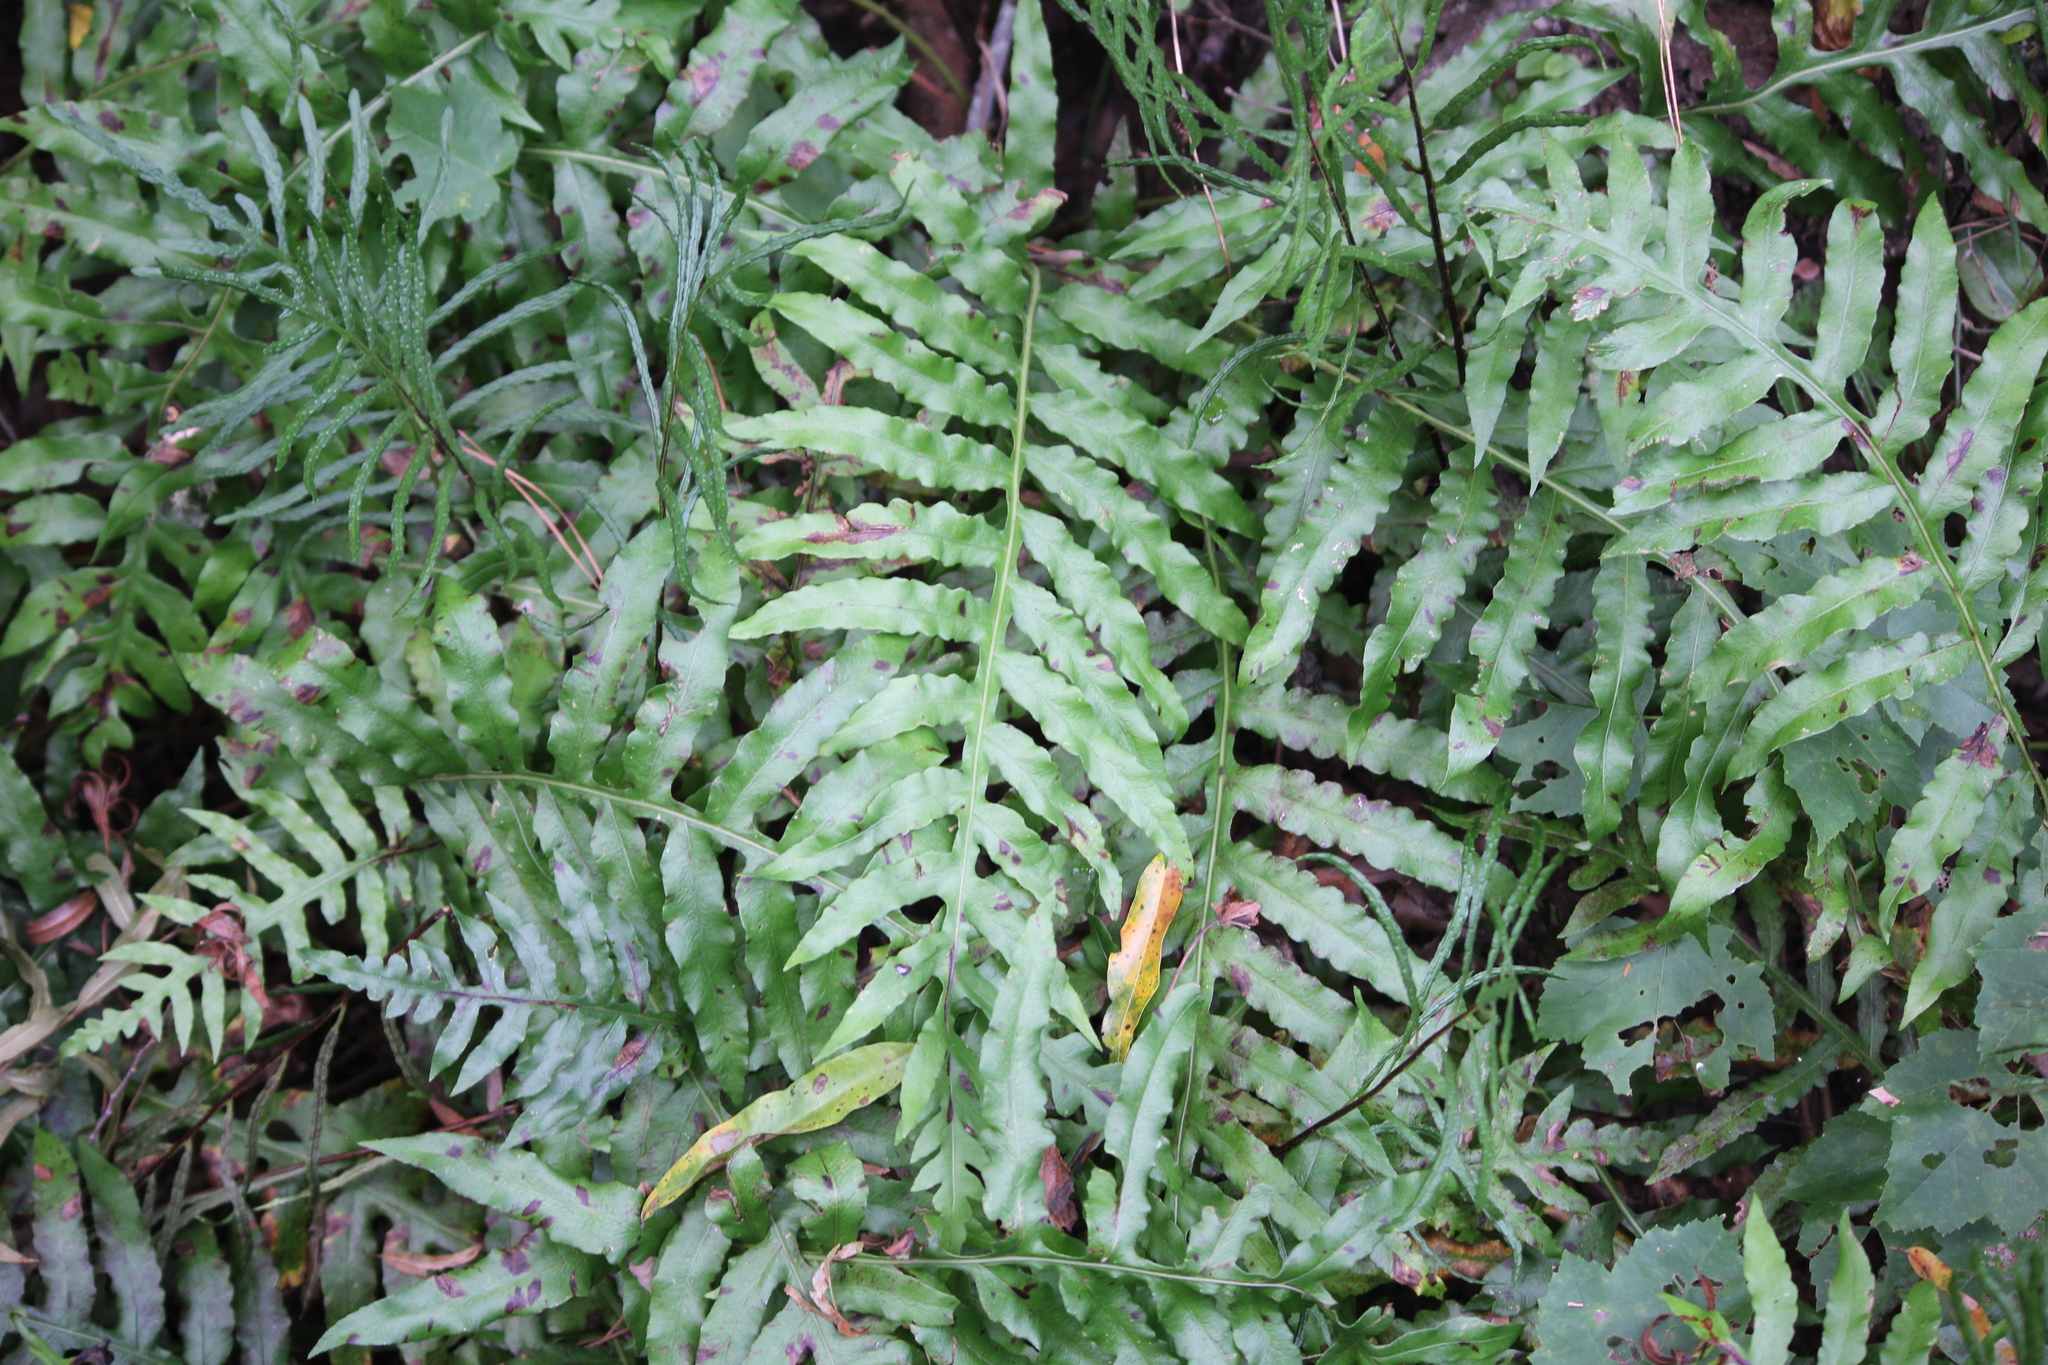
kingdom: Plantae
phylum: Tracheophyta
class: Polypodiopsida
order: Polypodiales
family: Blechnaceae
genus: Lorinseria
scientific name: Lorinseria areolata
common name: Dwarf chain fern
